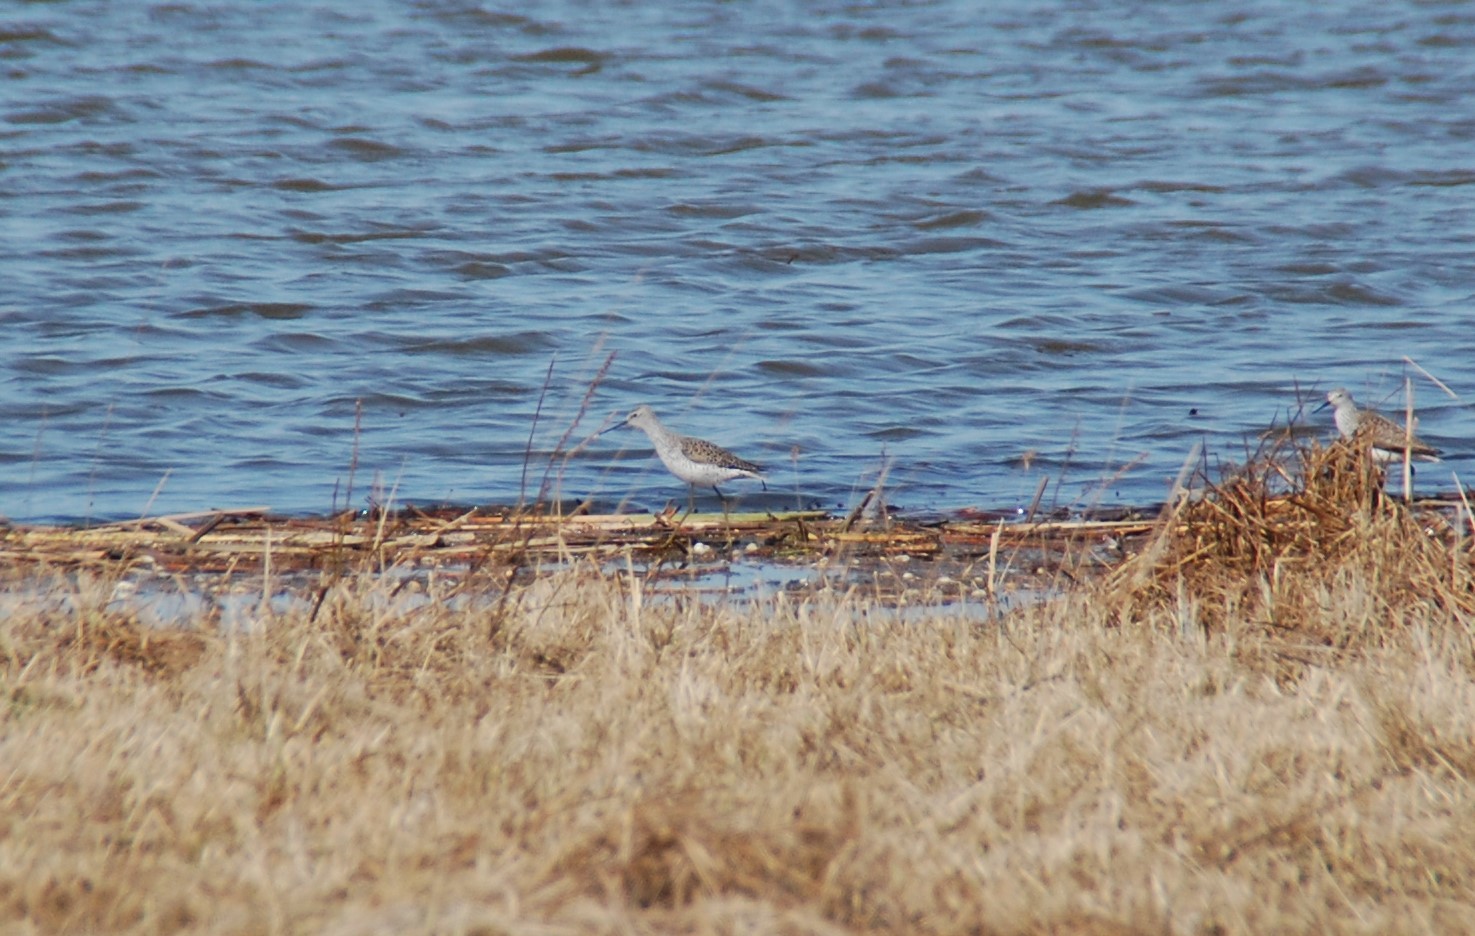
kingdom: Animalia
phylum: Chordata
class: Aves
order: Charadriiformes
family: Scolopacidae
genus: Tringa
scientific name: Tringa stagnatilis
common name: Marsh sandpiper
